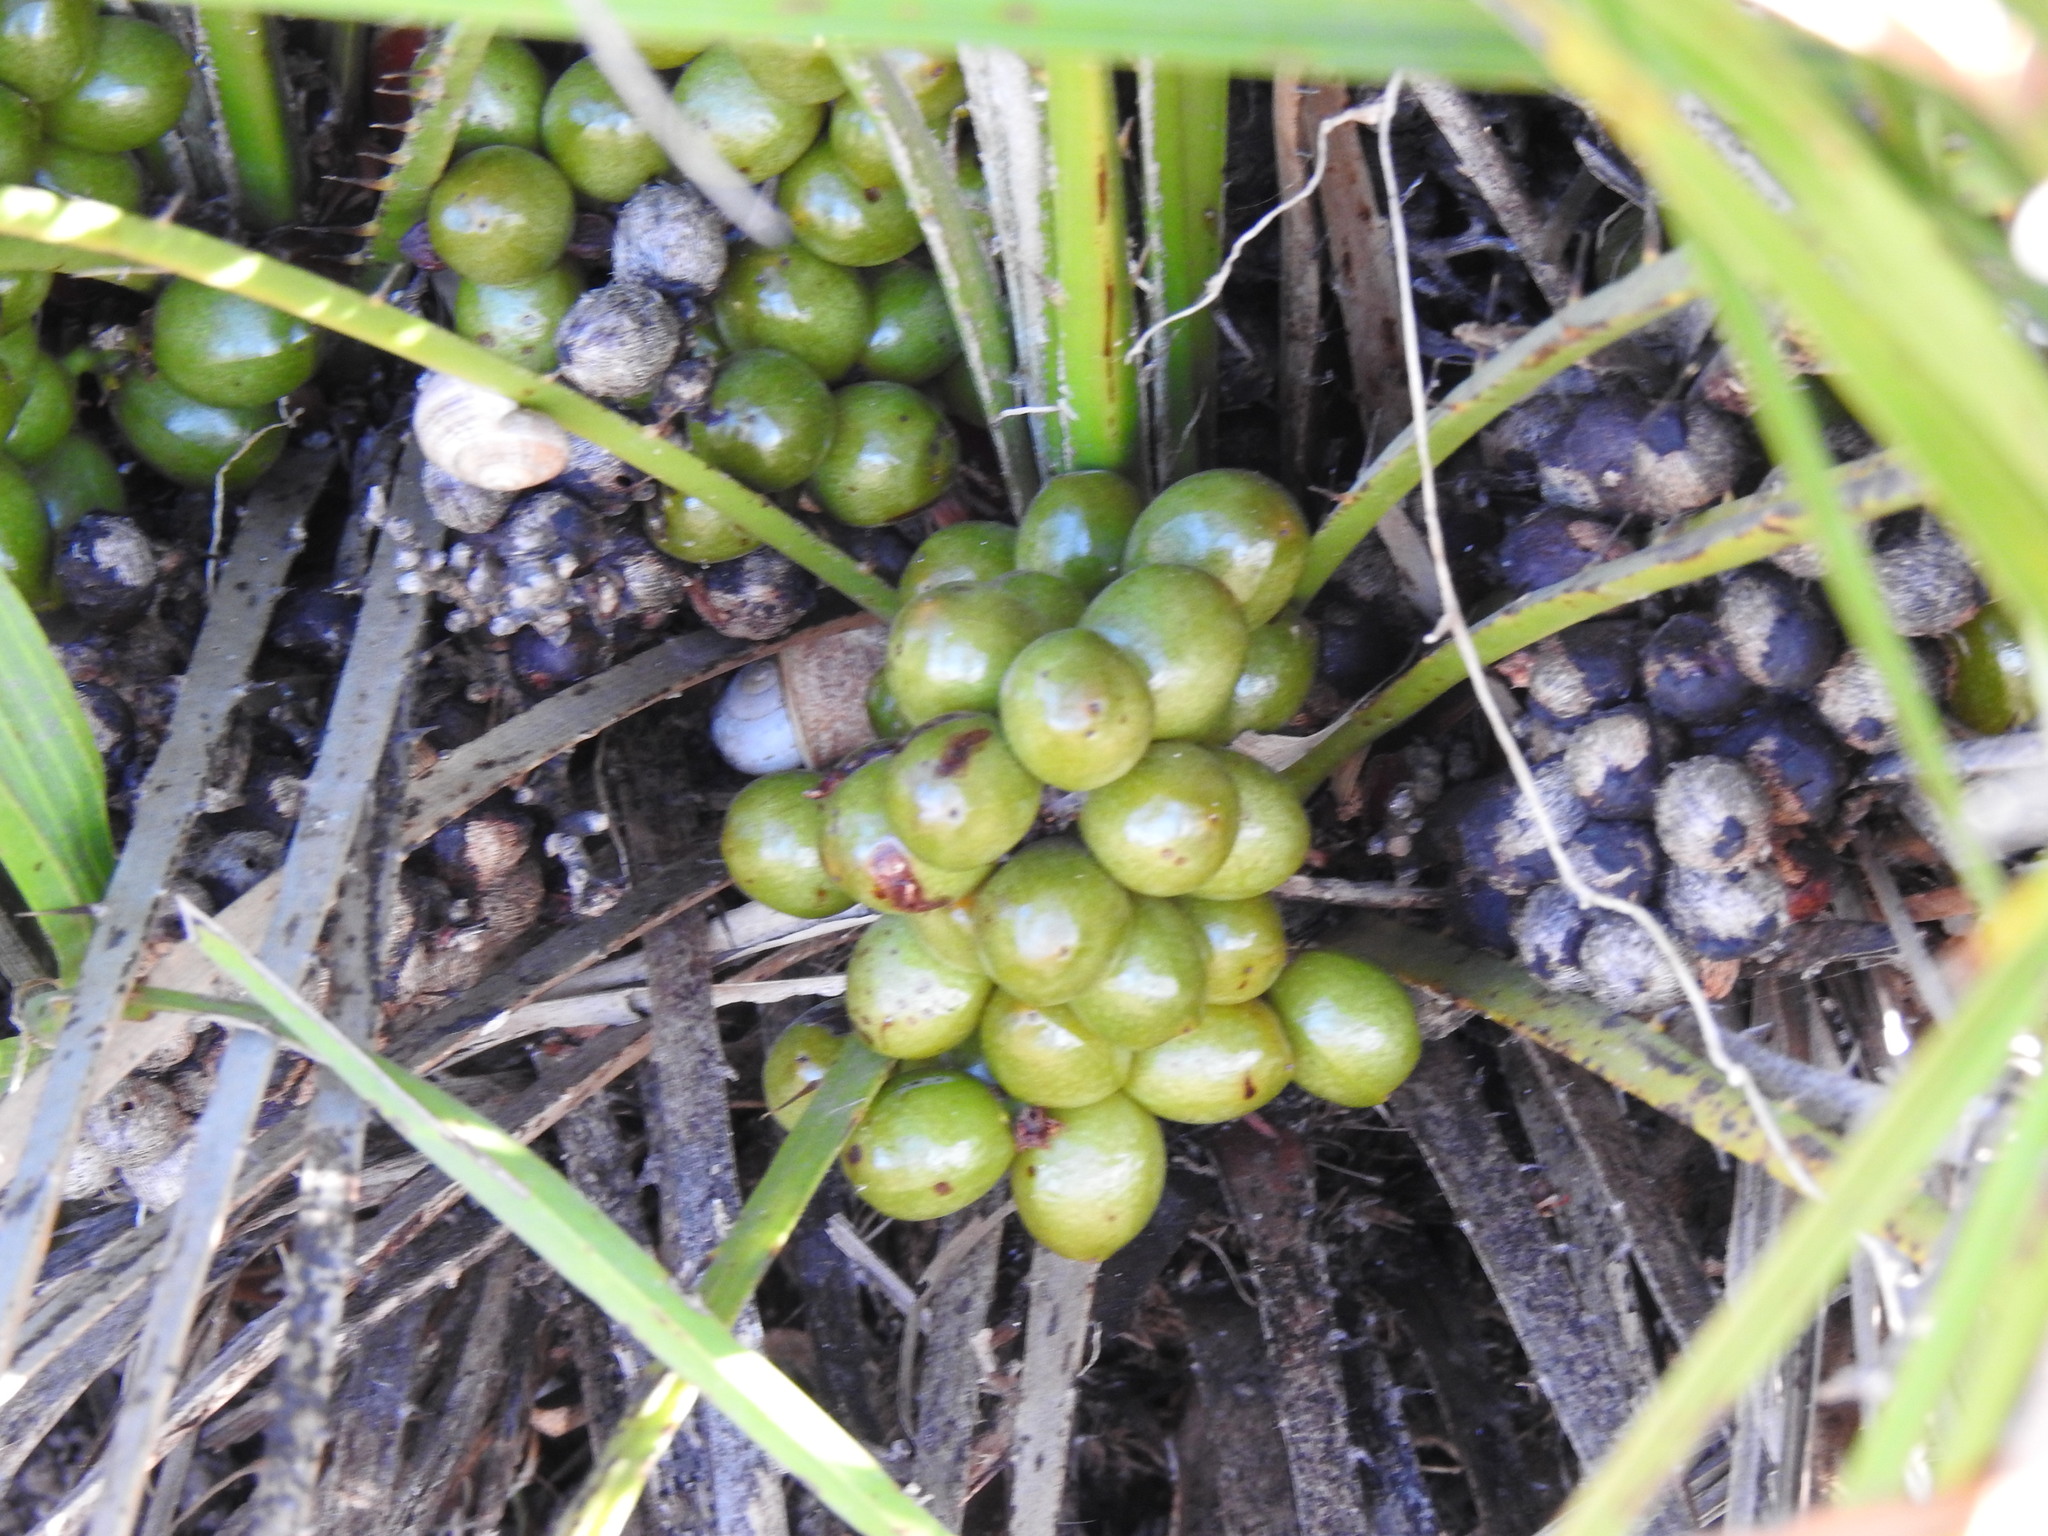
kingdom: Plantae
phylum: Tracheophyta
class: Liliopsida
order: Arecales
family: Arecaceae
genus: Chamaerops
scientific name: Chamaerops humilis
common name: Dwarf fan palm
